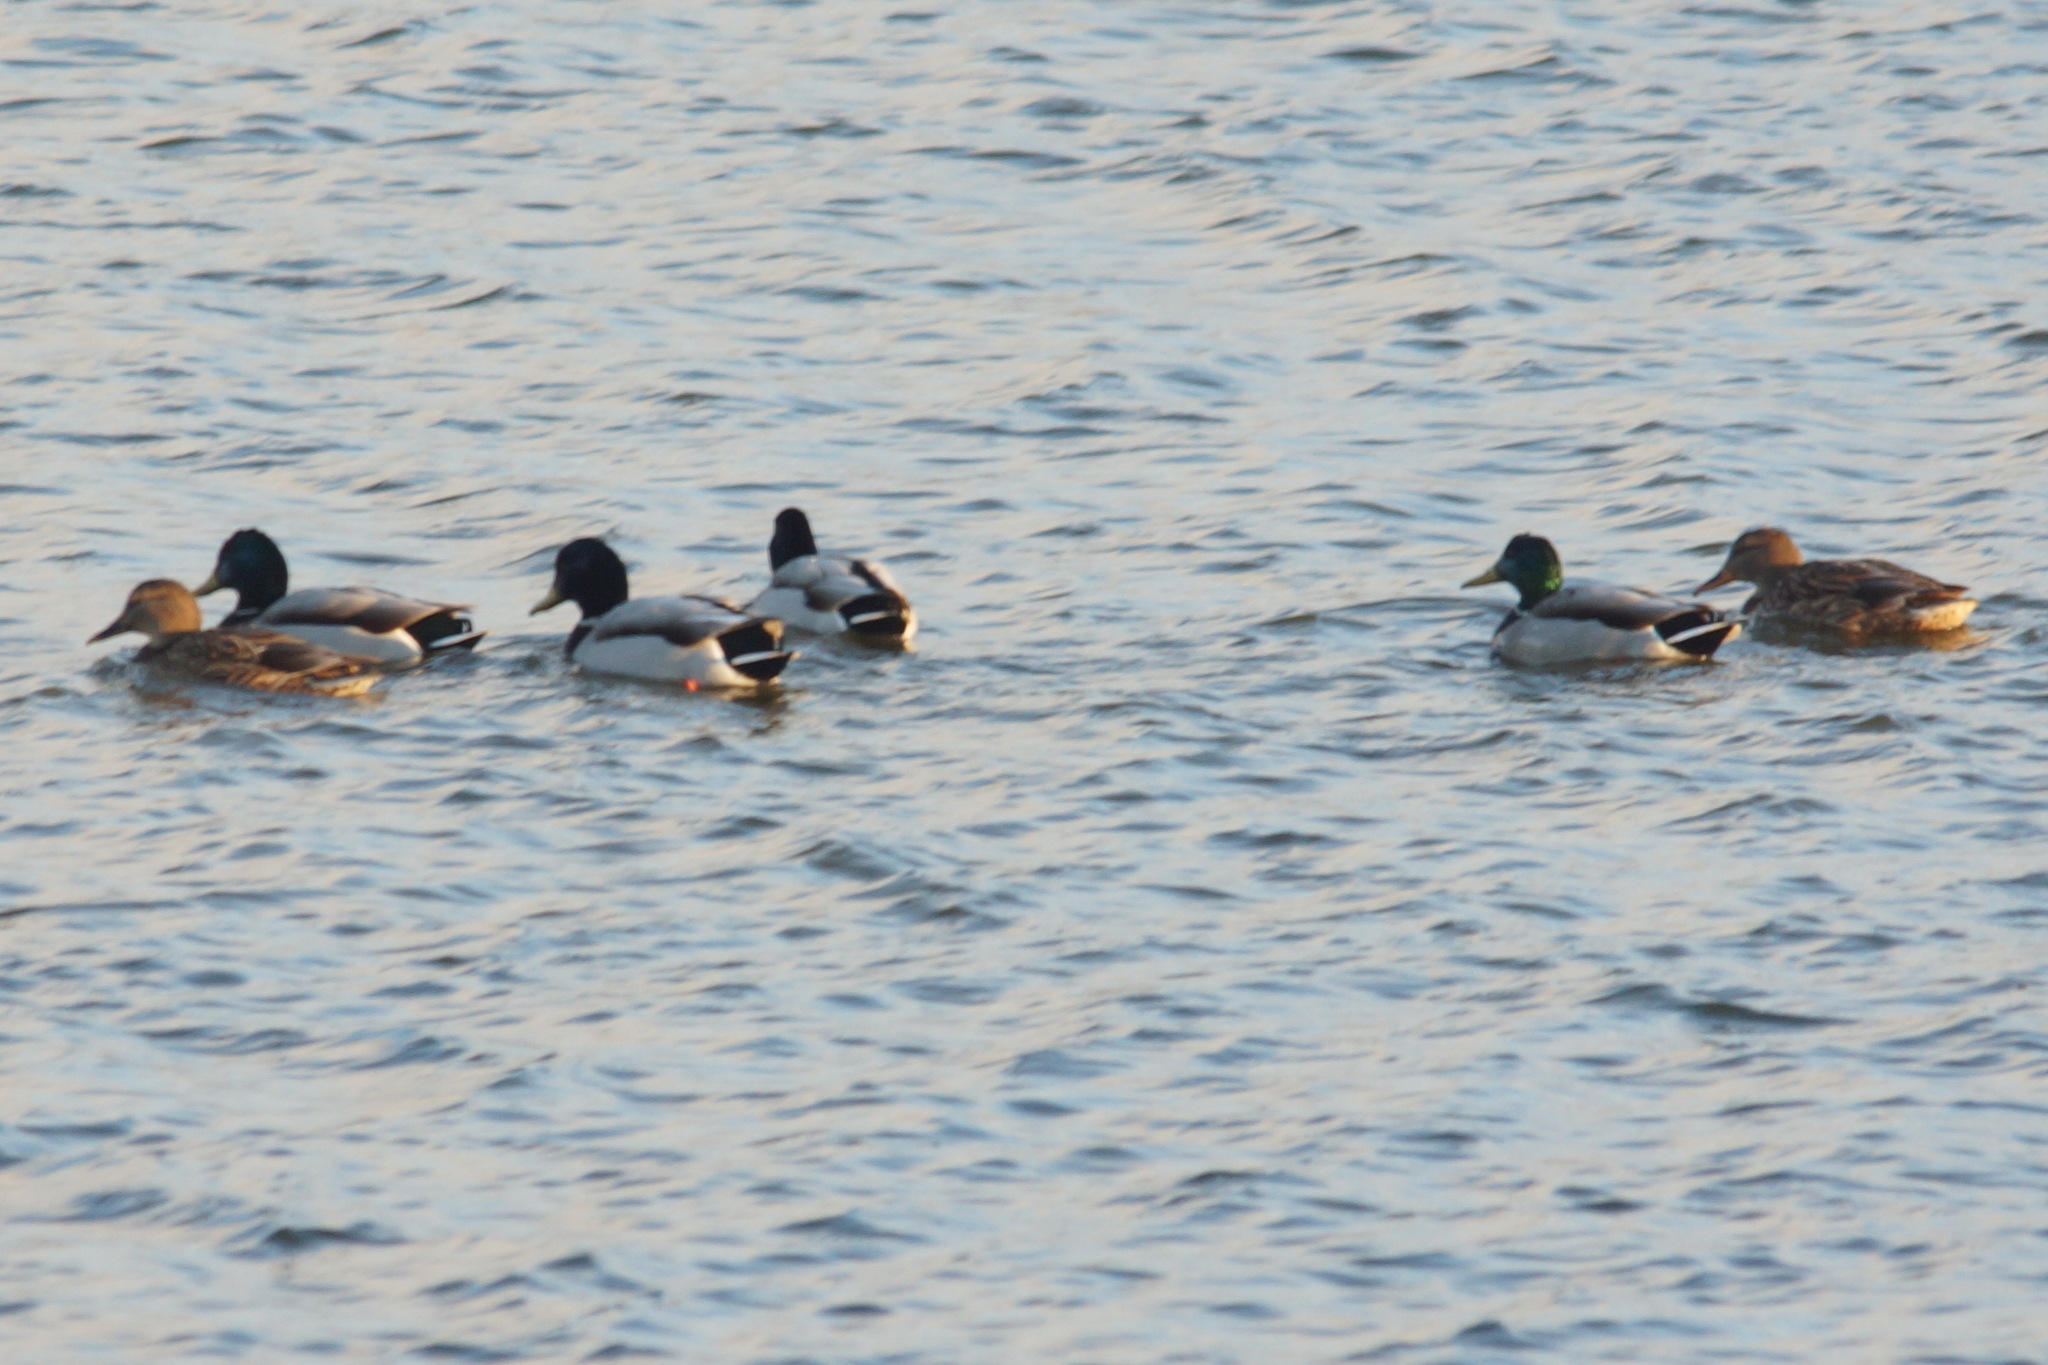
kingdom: Animalia
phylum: Chordata
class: Aves
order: Anseriformes
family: Anatidae
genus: Anas
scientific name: Anas platyrhynchos
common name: Mallard
